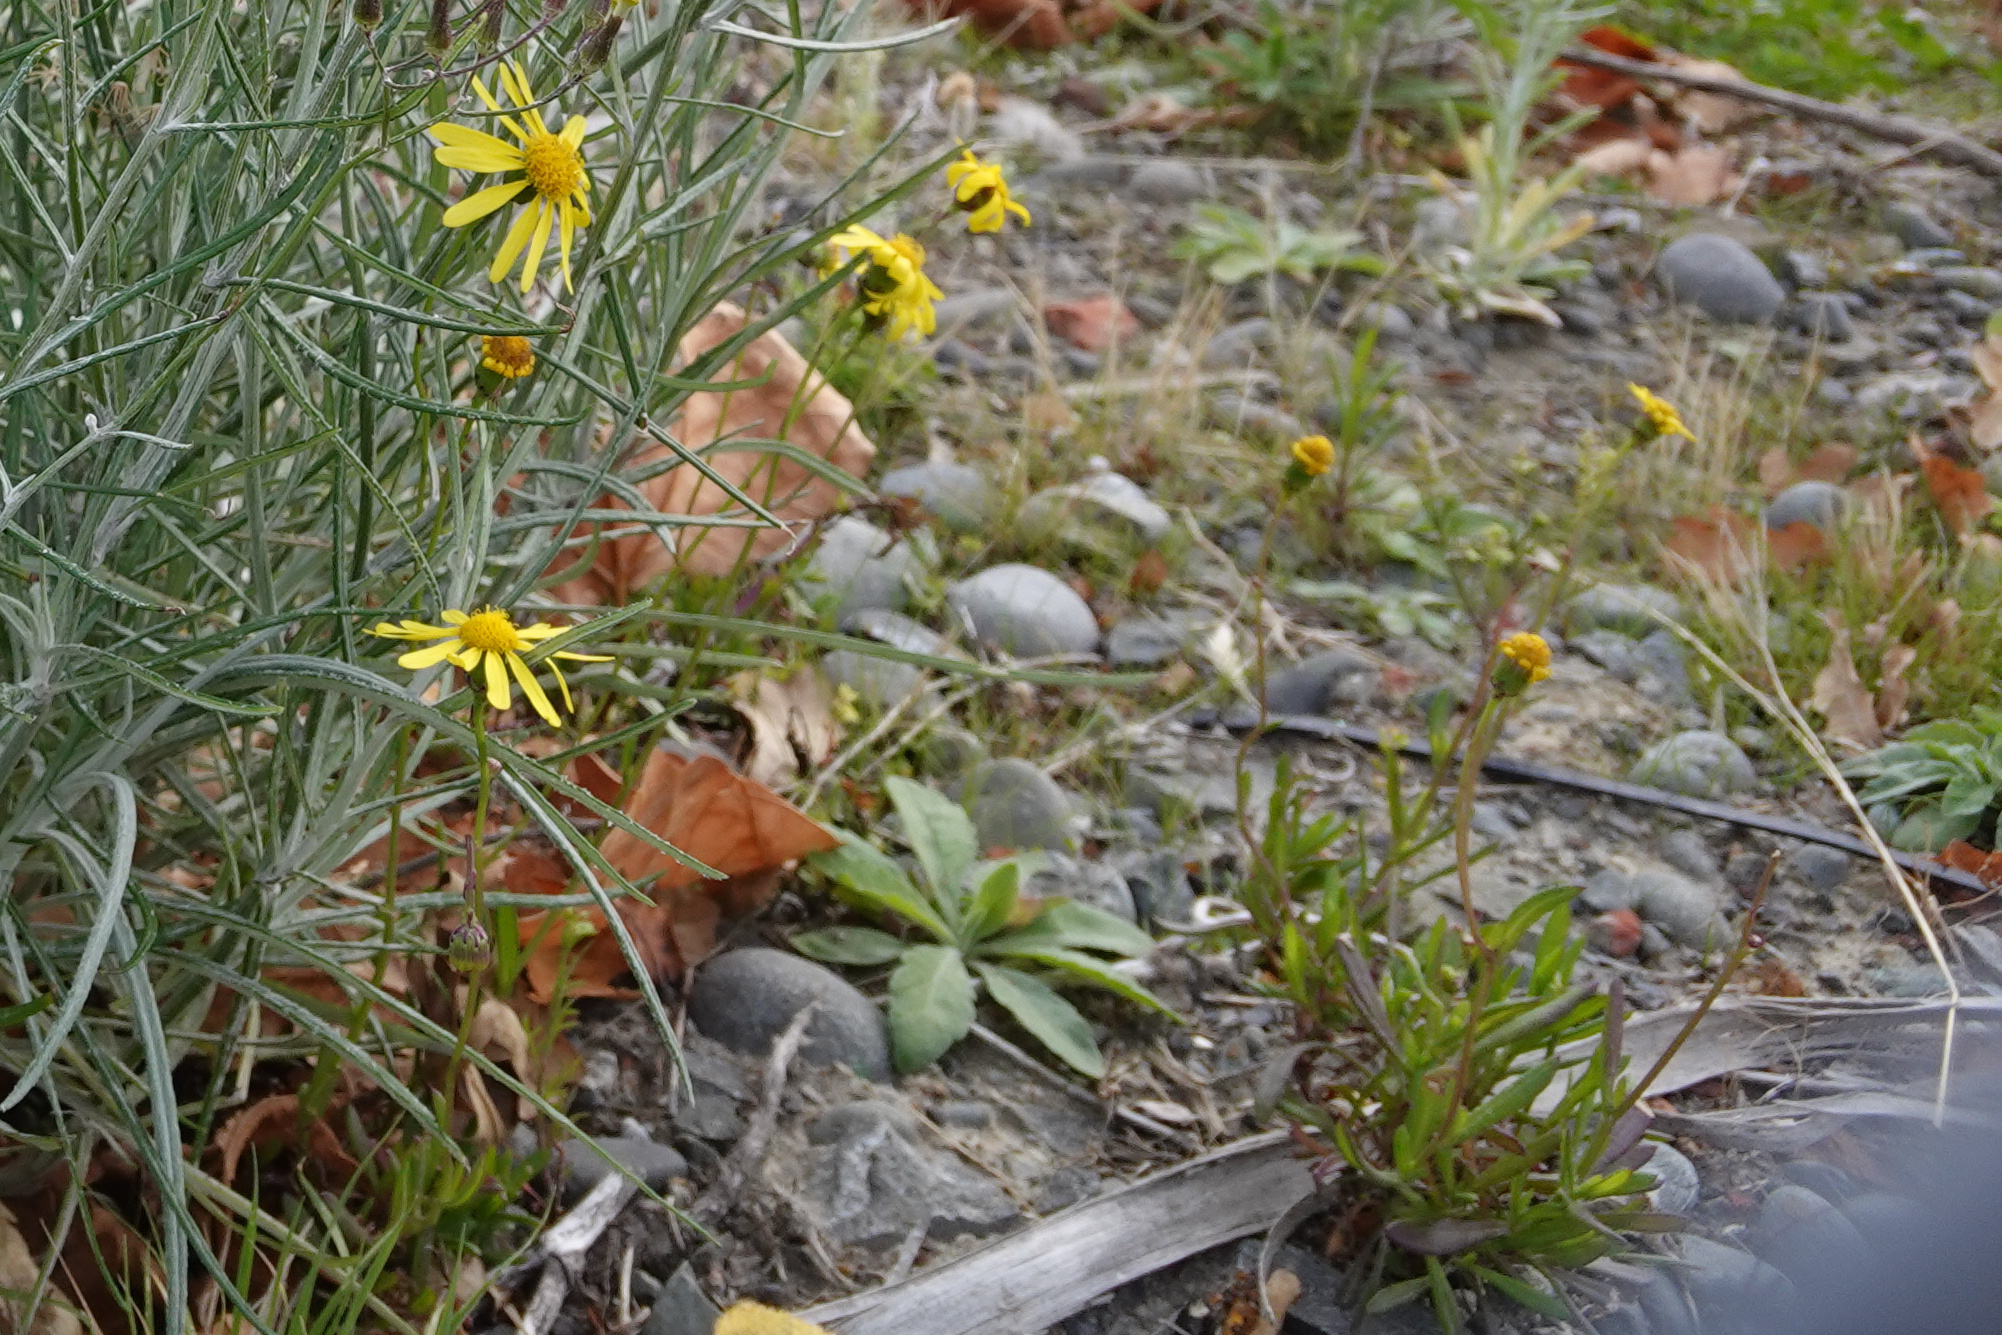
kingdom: Plantae
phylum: Tracheophyta
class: Magnoliopsida
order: Asterales
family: Asteraceae
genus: Senecio
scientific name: Senecio skirrhodon
